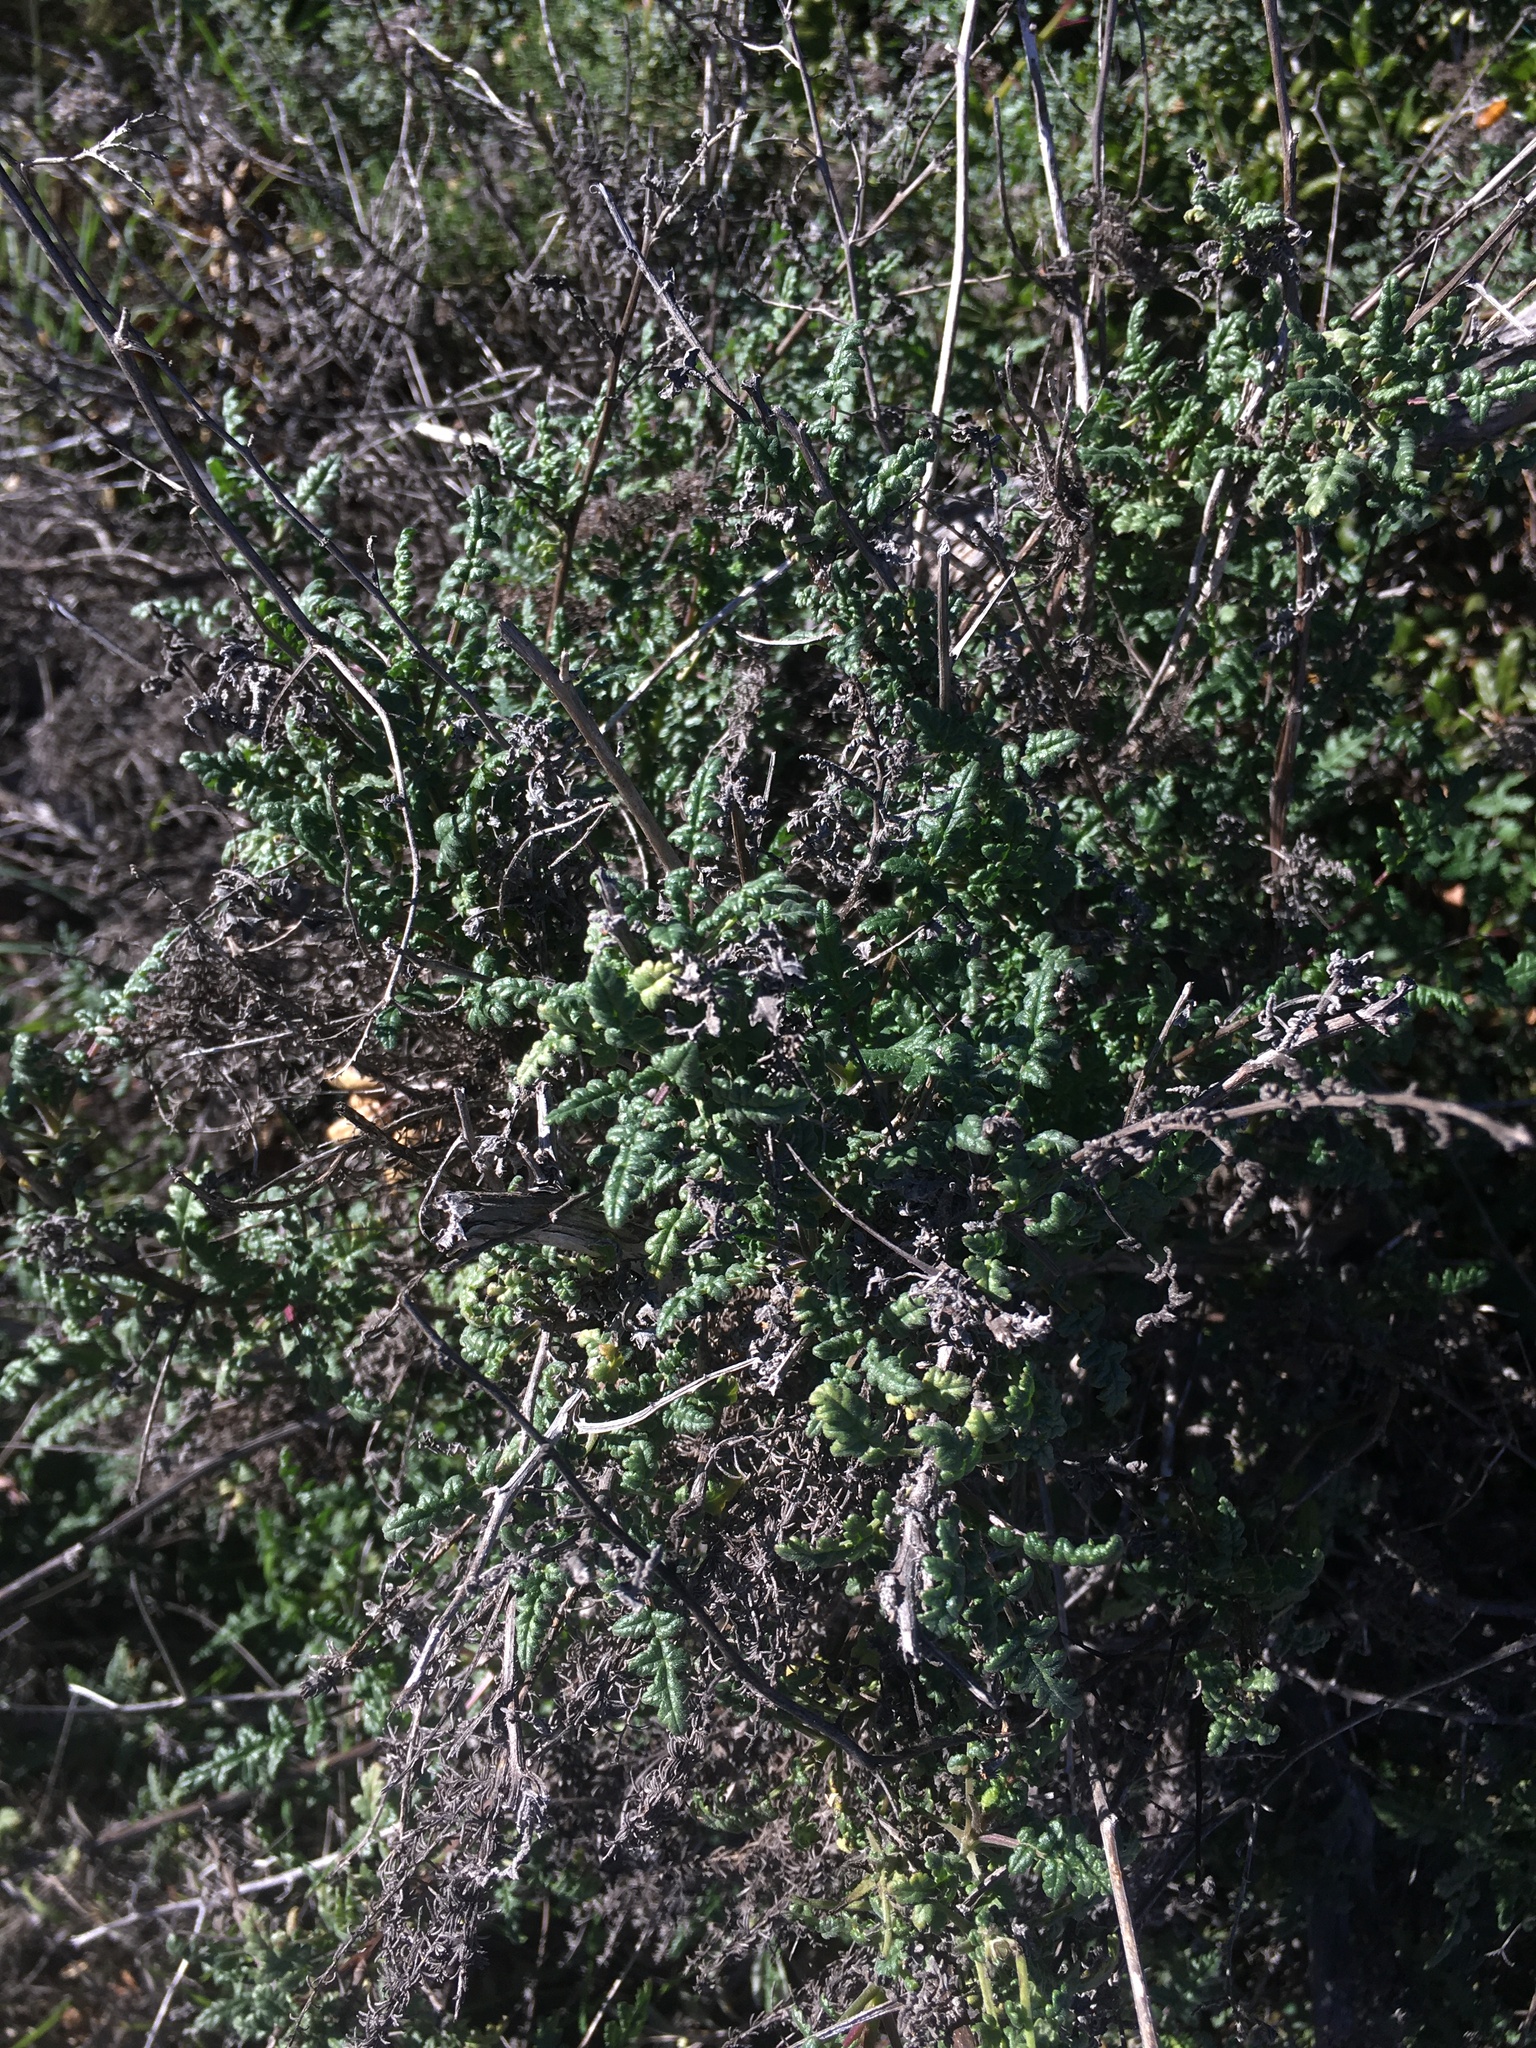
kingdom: Plantae
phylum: Tracheophyta
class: Magnoliopsida
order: Boraginales
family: Hydrophyllaceae
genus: Phacelia
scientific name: Phacelia ramosissima
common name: Branching phacelia
